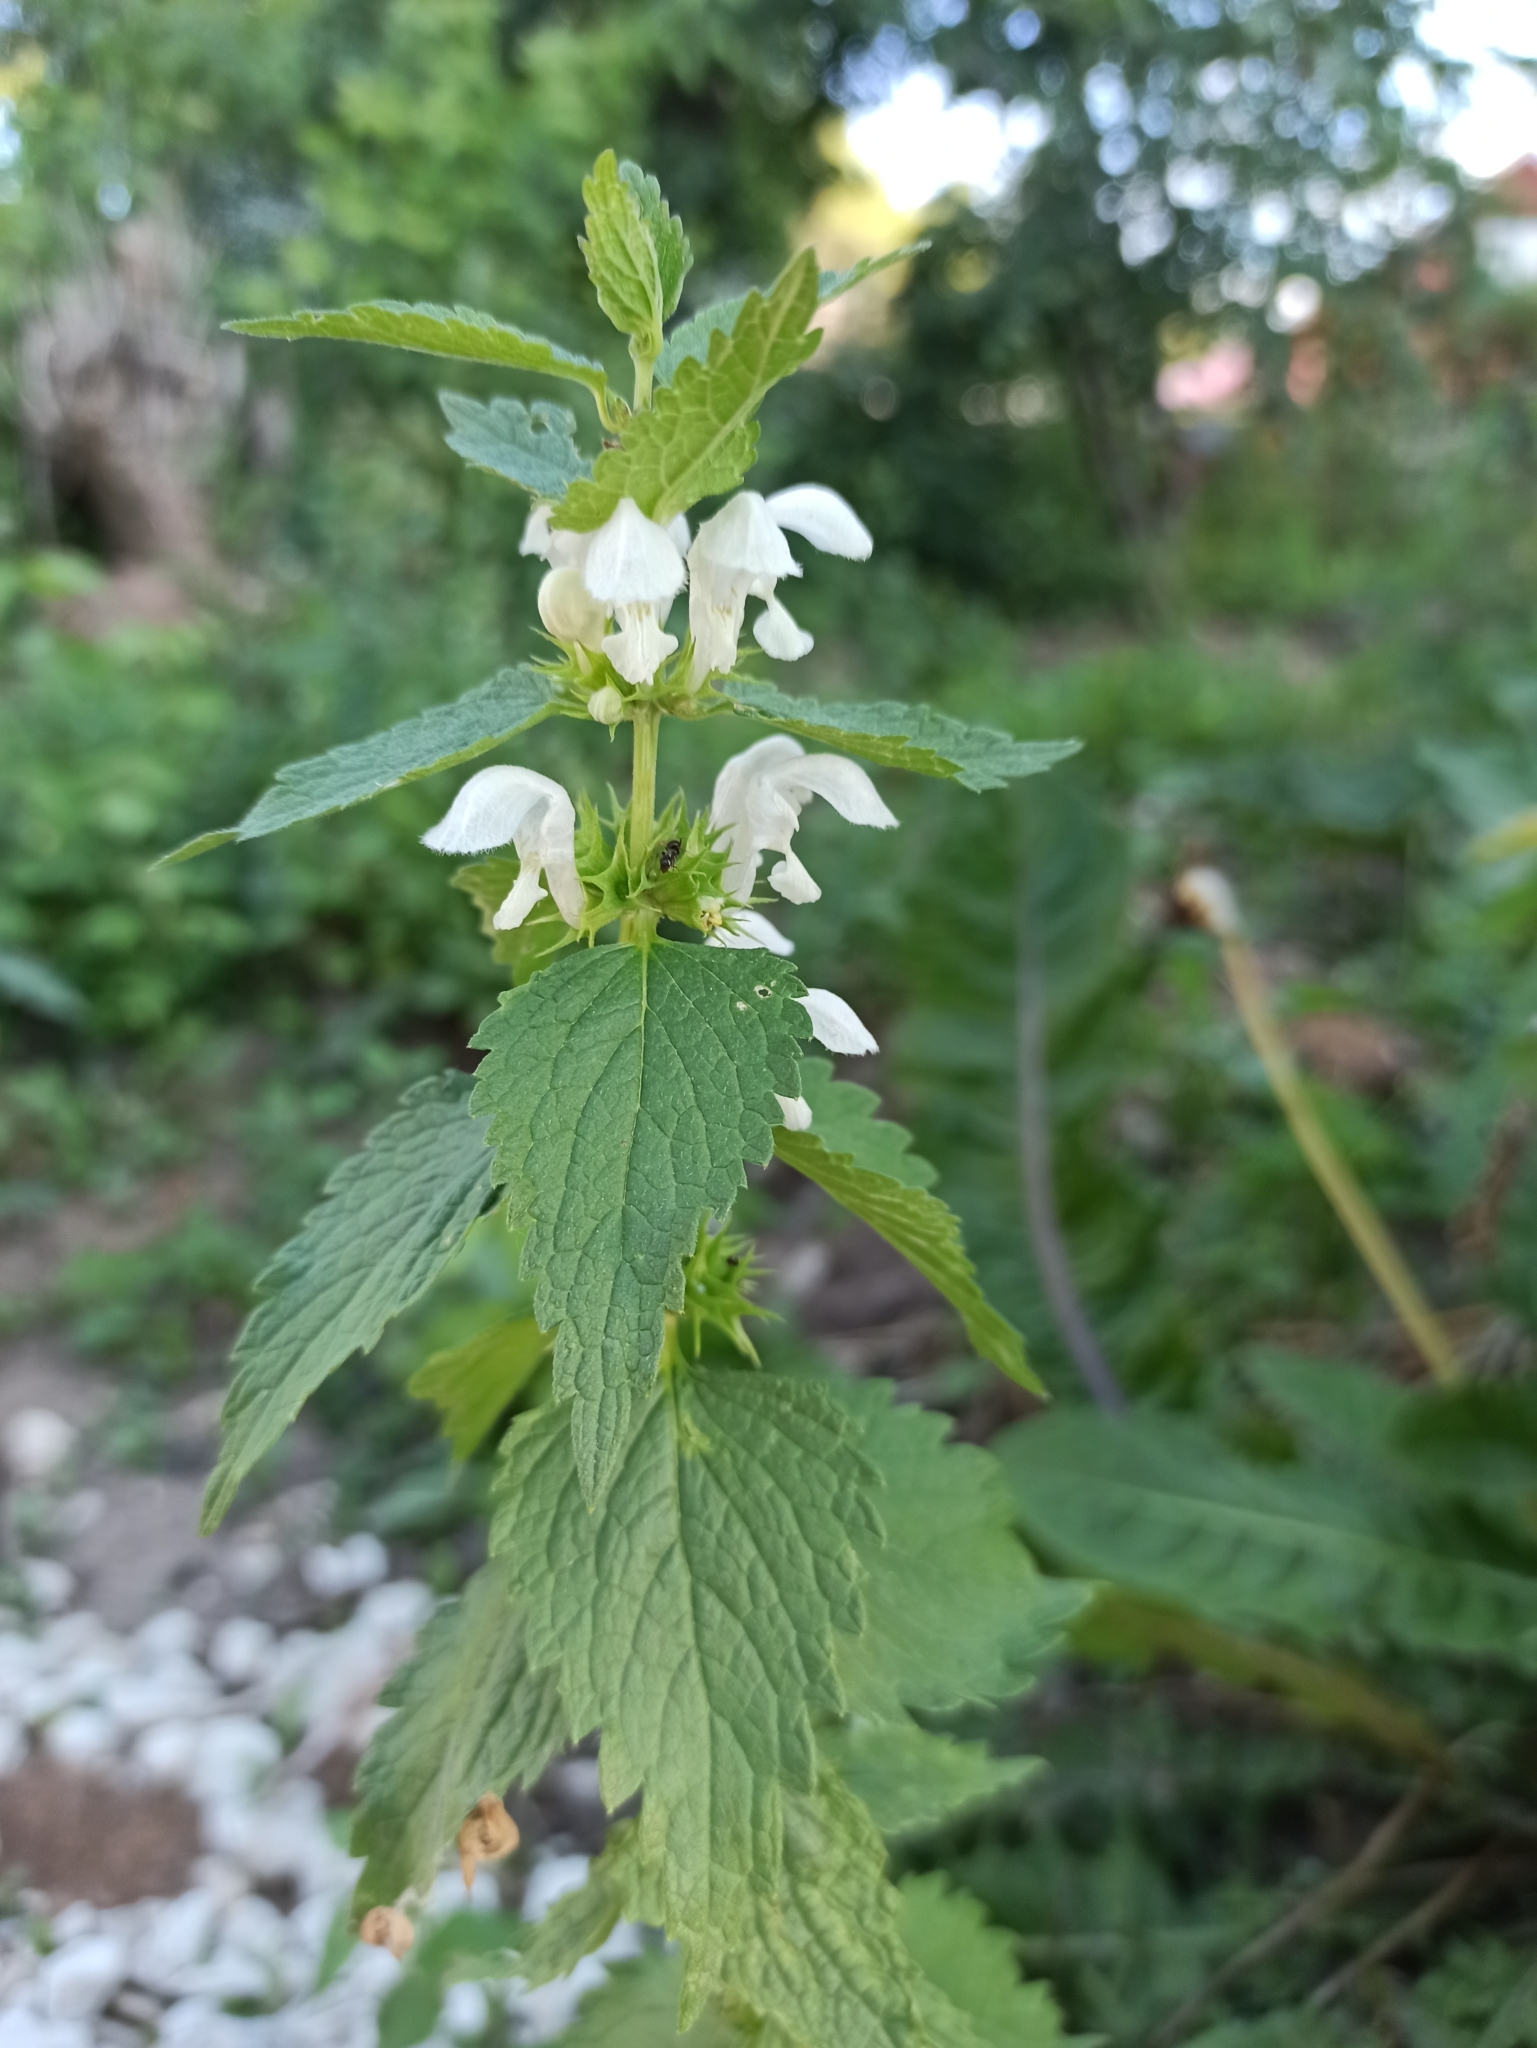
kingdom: Plantae
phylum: Tracheophyta
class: Magnoliopsida
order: Lamiales
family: Lamiaceae
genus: Lamium
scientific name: Lamium album
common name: White dead-nettle
